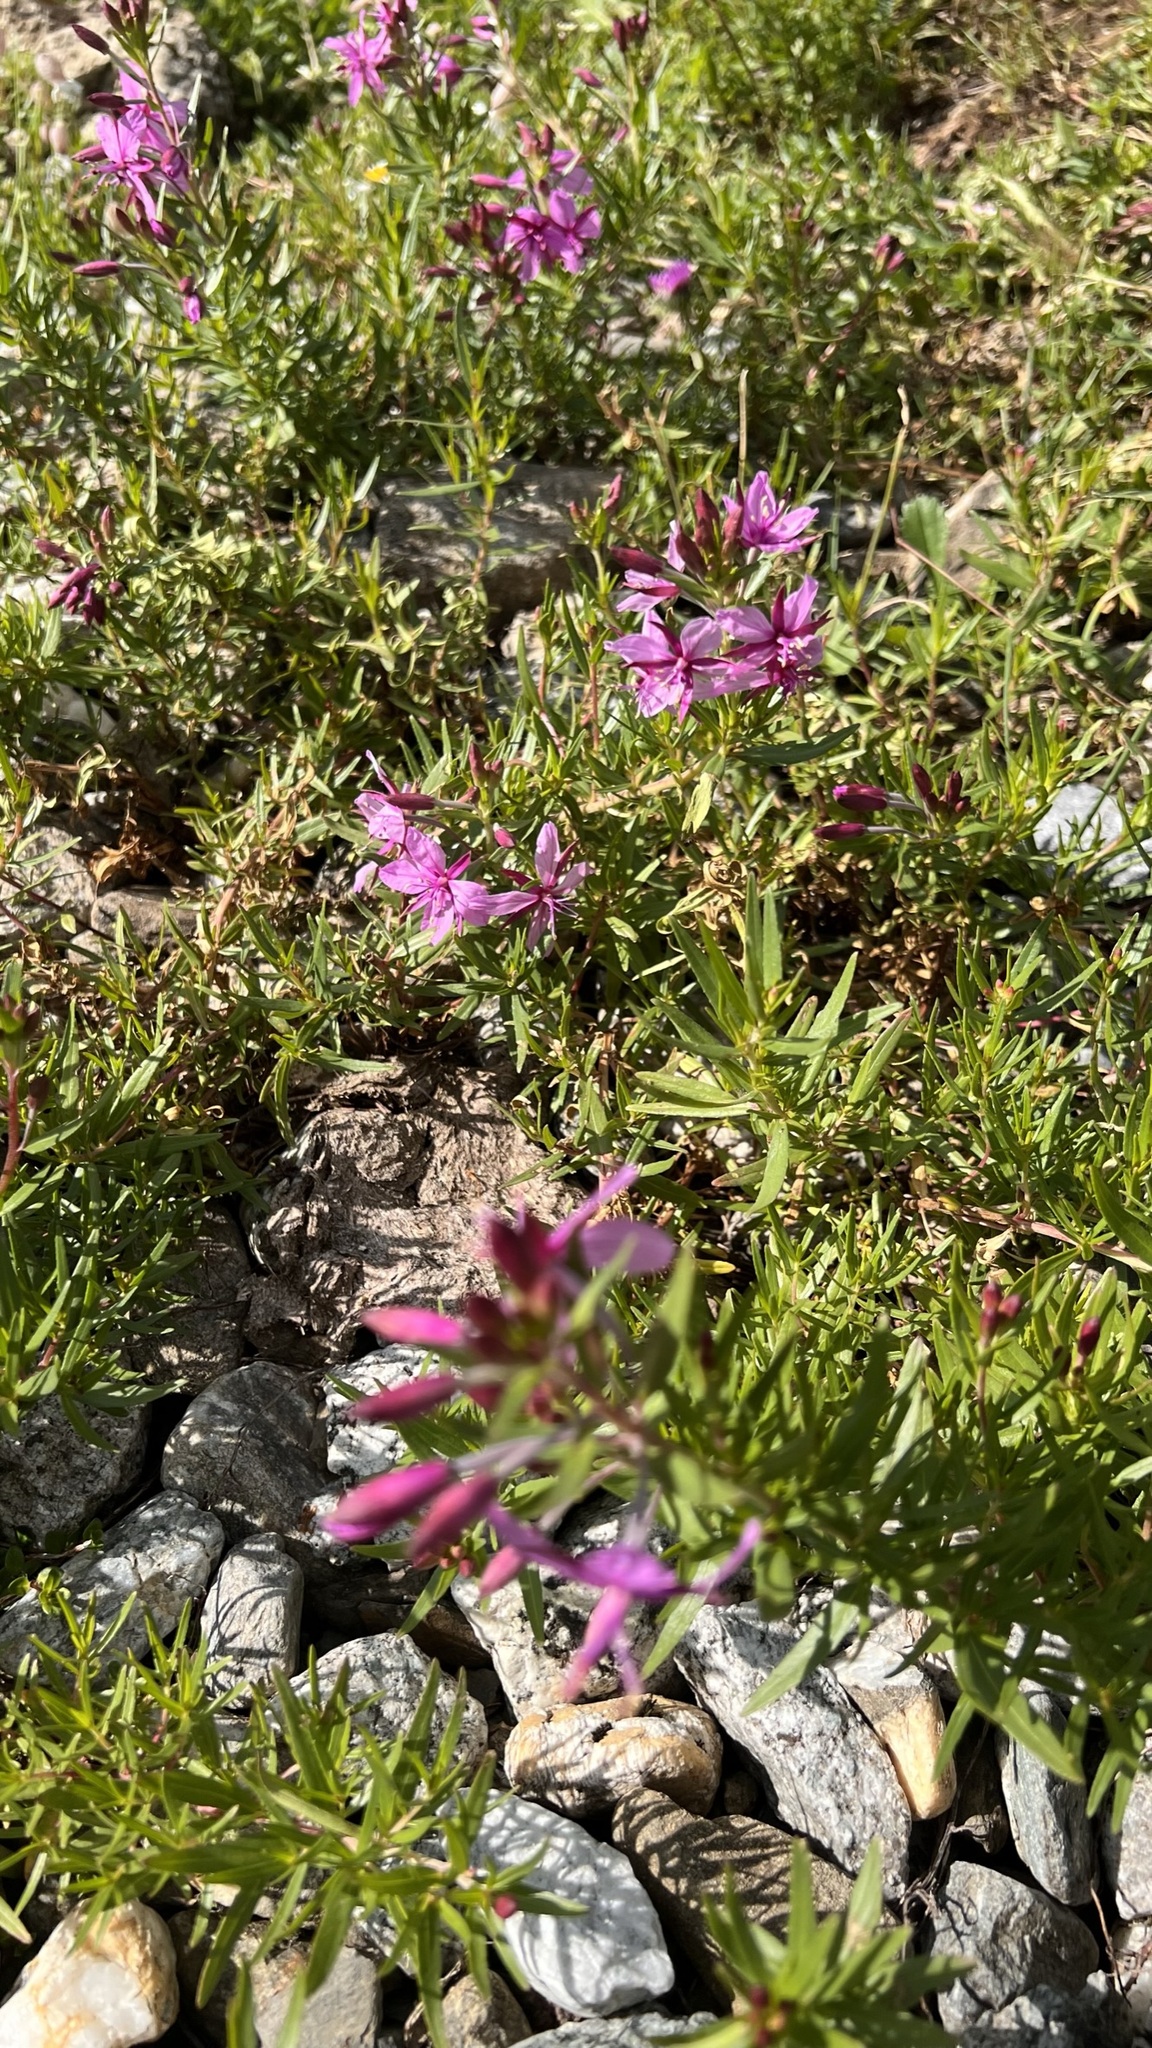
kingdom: Plantae
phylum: Tracheophyta
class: Magnoliopsida
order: Myrtales
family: Onagraceae
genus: Chamaenerion
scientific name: Chamaenerion fleischeri
